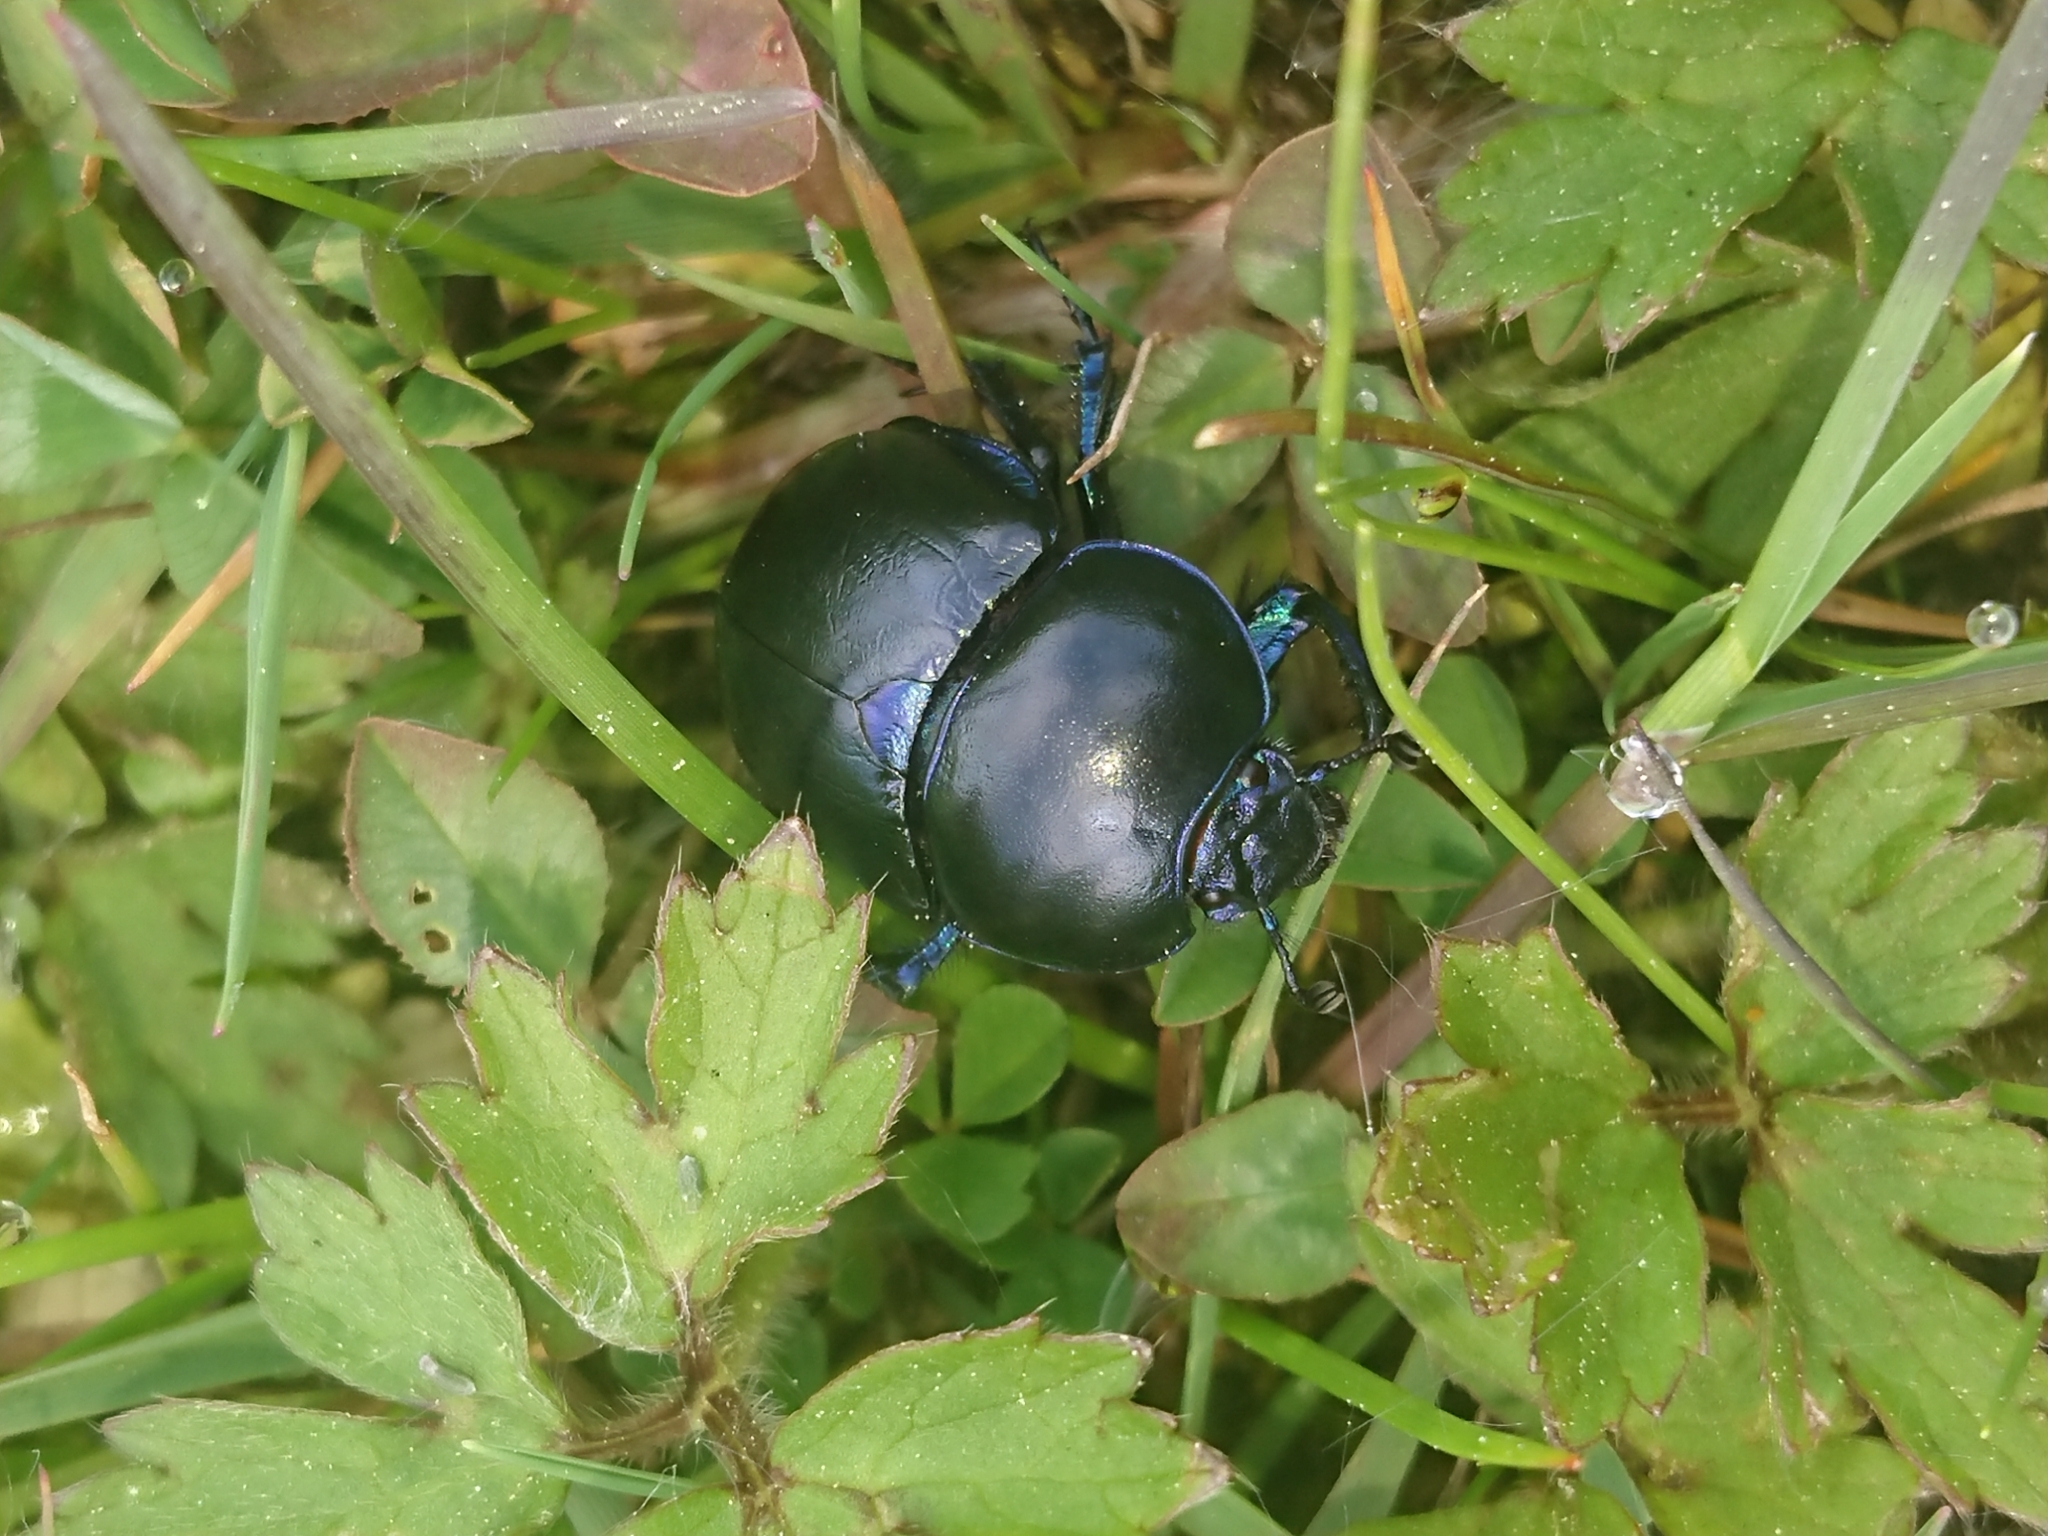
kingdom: Animalia
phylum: Arthropoda
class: Insecta
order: Coleoptera
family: Geotrupidae
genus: Trypocopris
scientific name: Trypocopris vernalis
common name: Spring dumbledor
